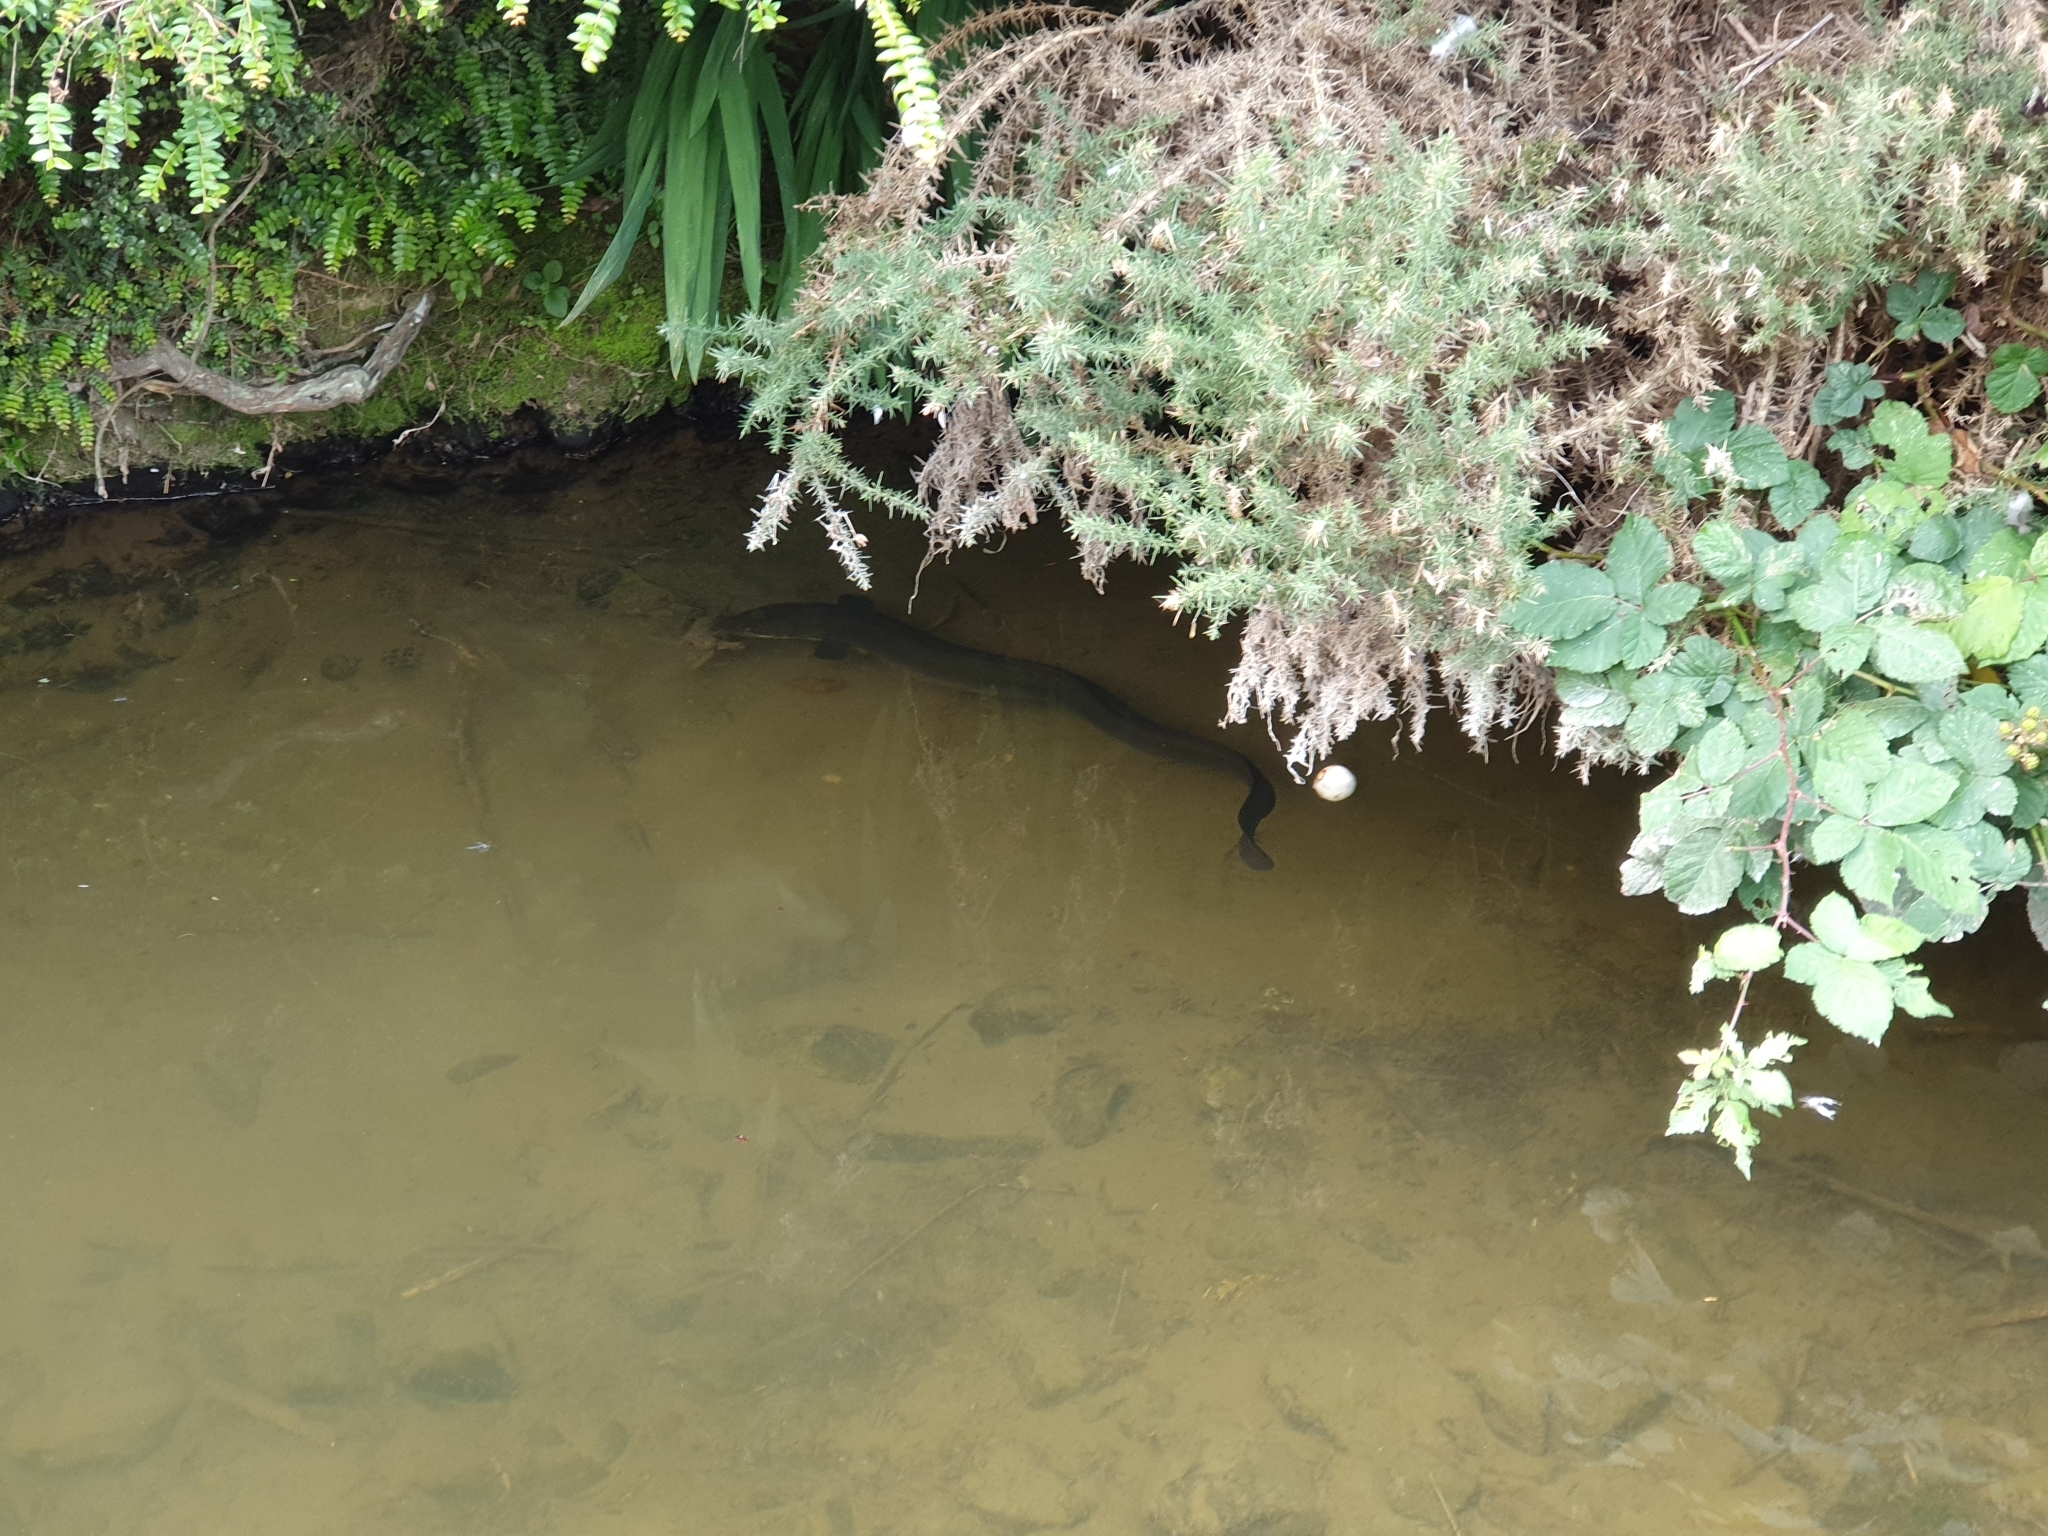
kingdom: Animalia
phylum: Chordata
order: Anguilliformes
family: Anguillidae
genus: Anguilla
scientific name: Anguilla dieffenbachii
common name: New zealand longfin eel
